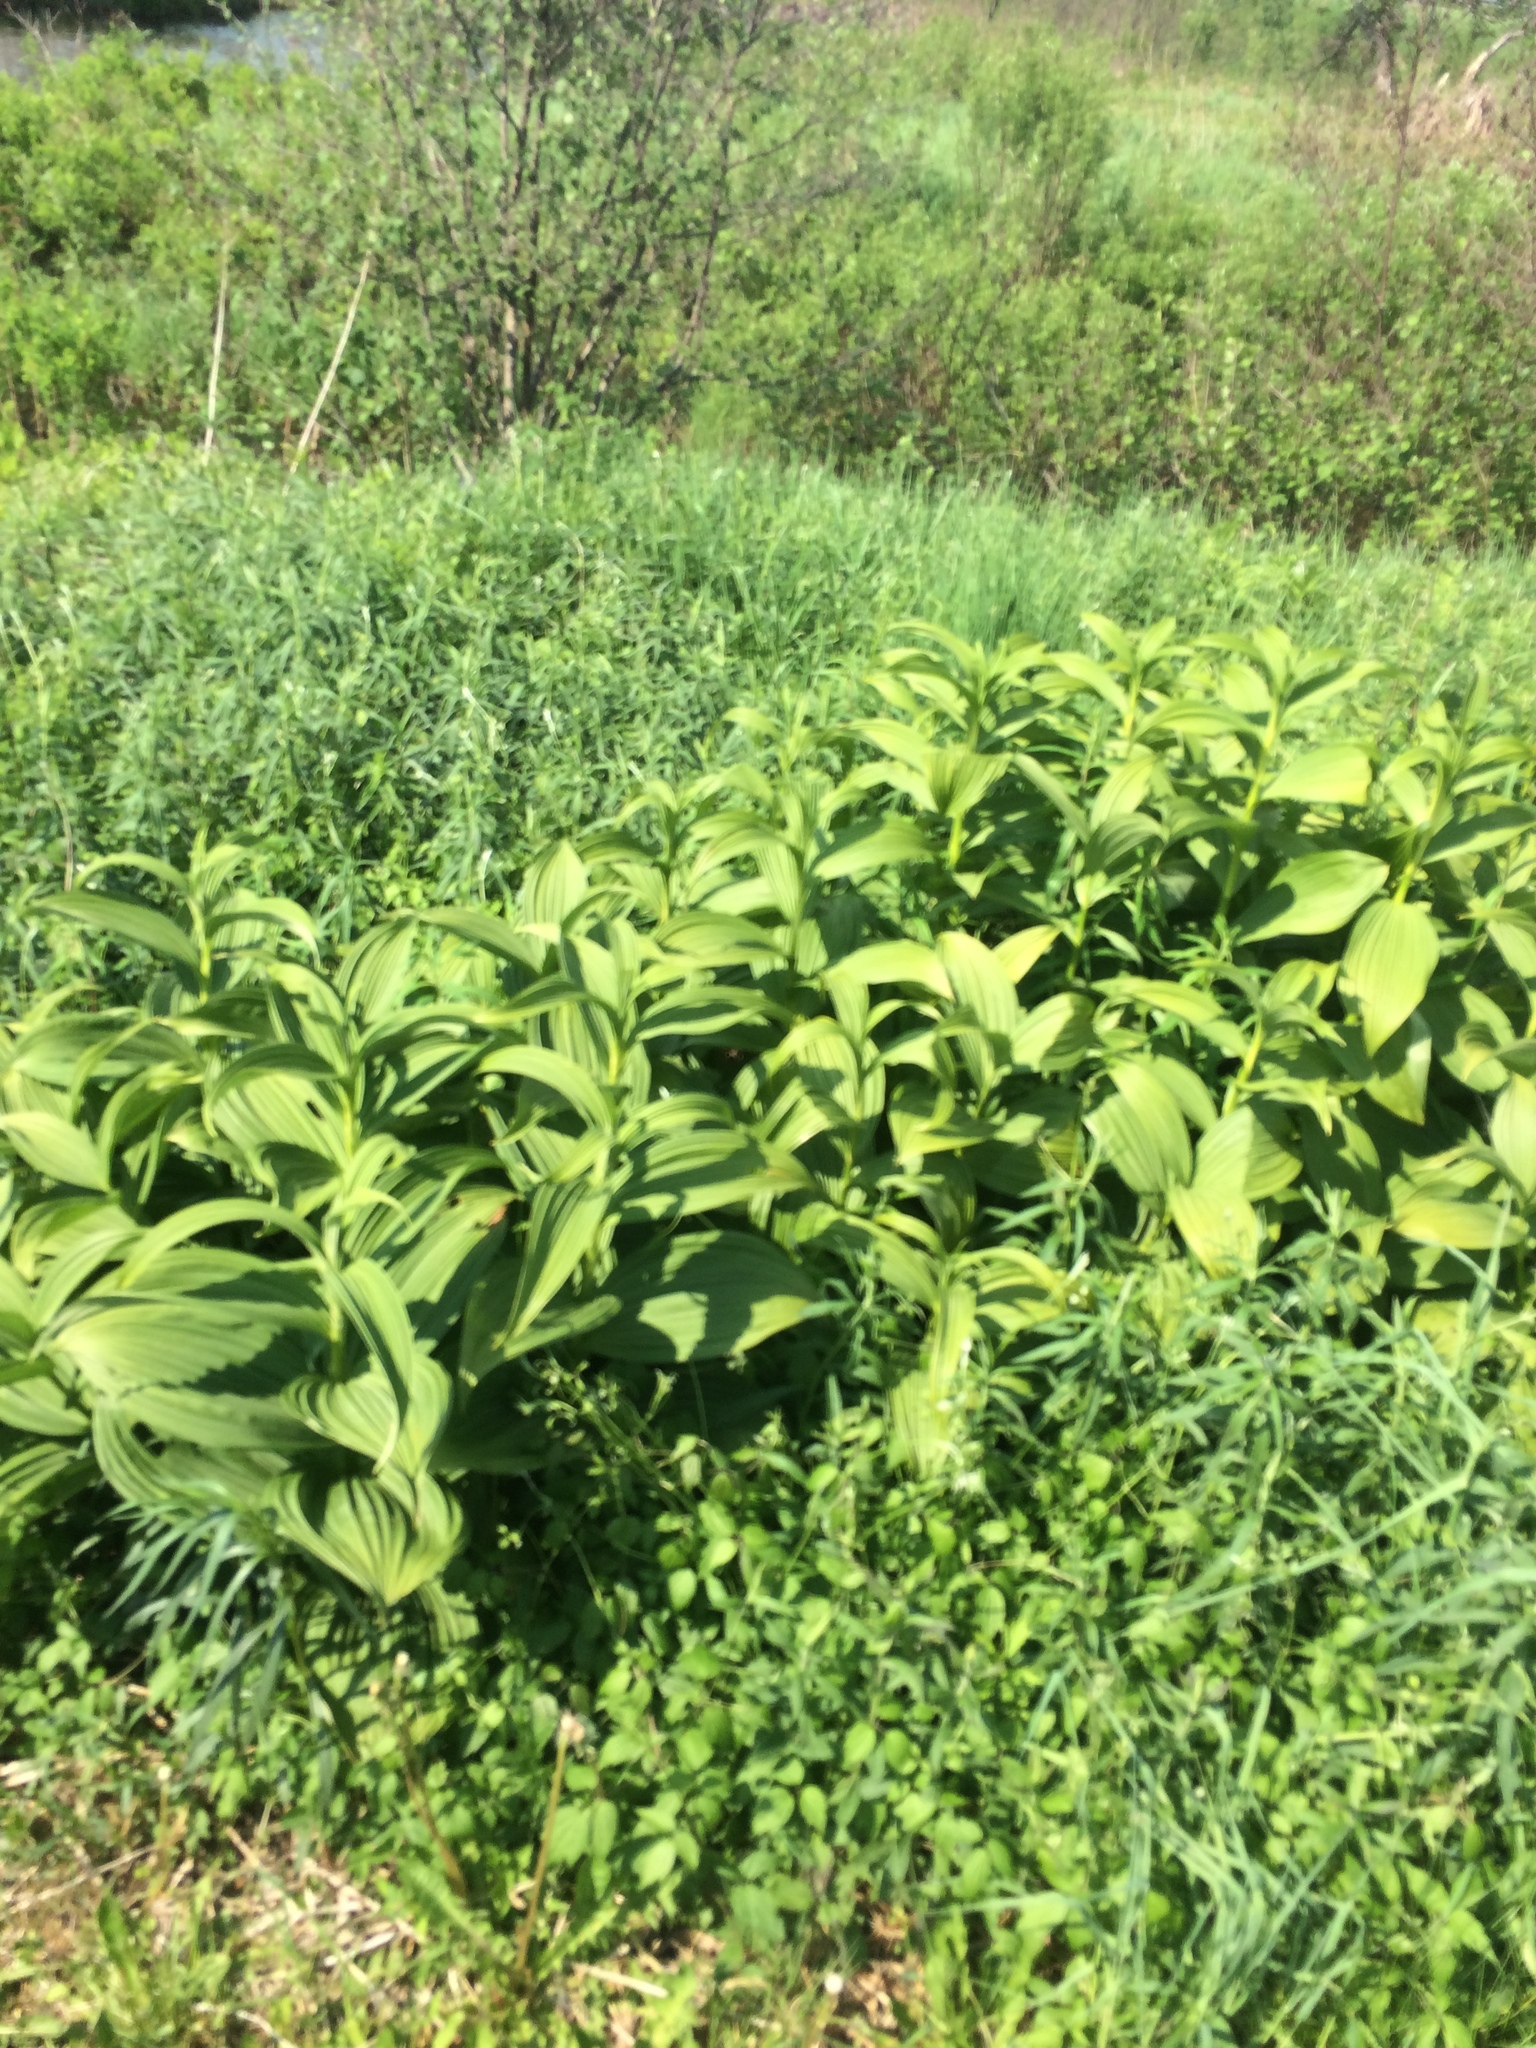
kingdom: Plantae
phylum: Tracheophyta
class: Liliopsida
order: Liliales
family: Melanthiaceae
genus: Veratrum
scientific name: Veratrum viride
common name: American false hellebore
